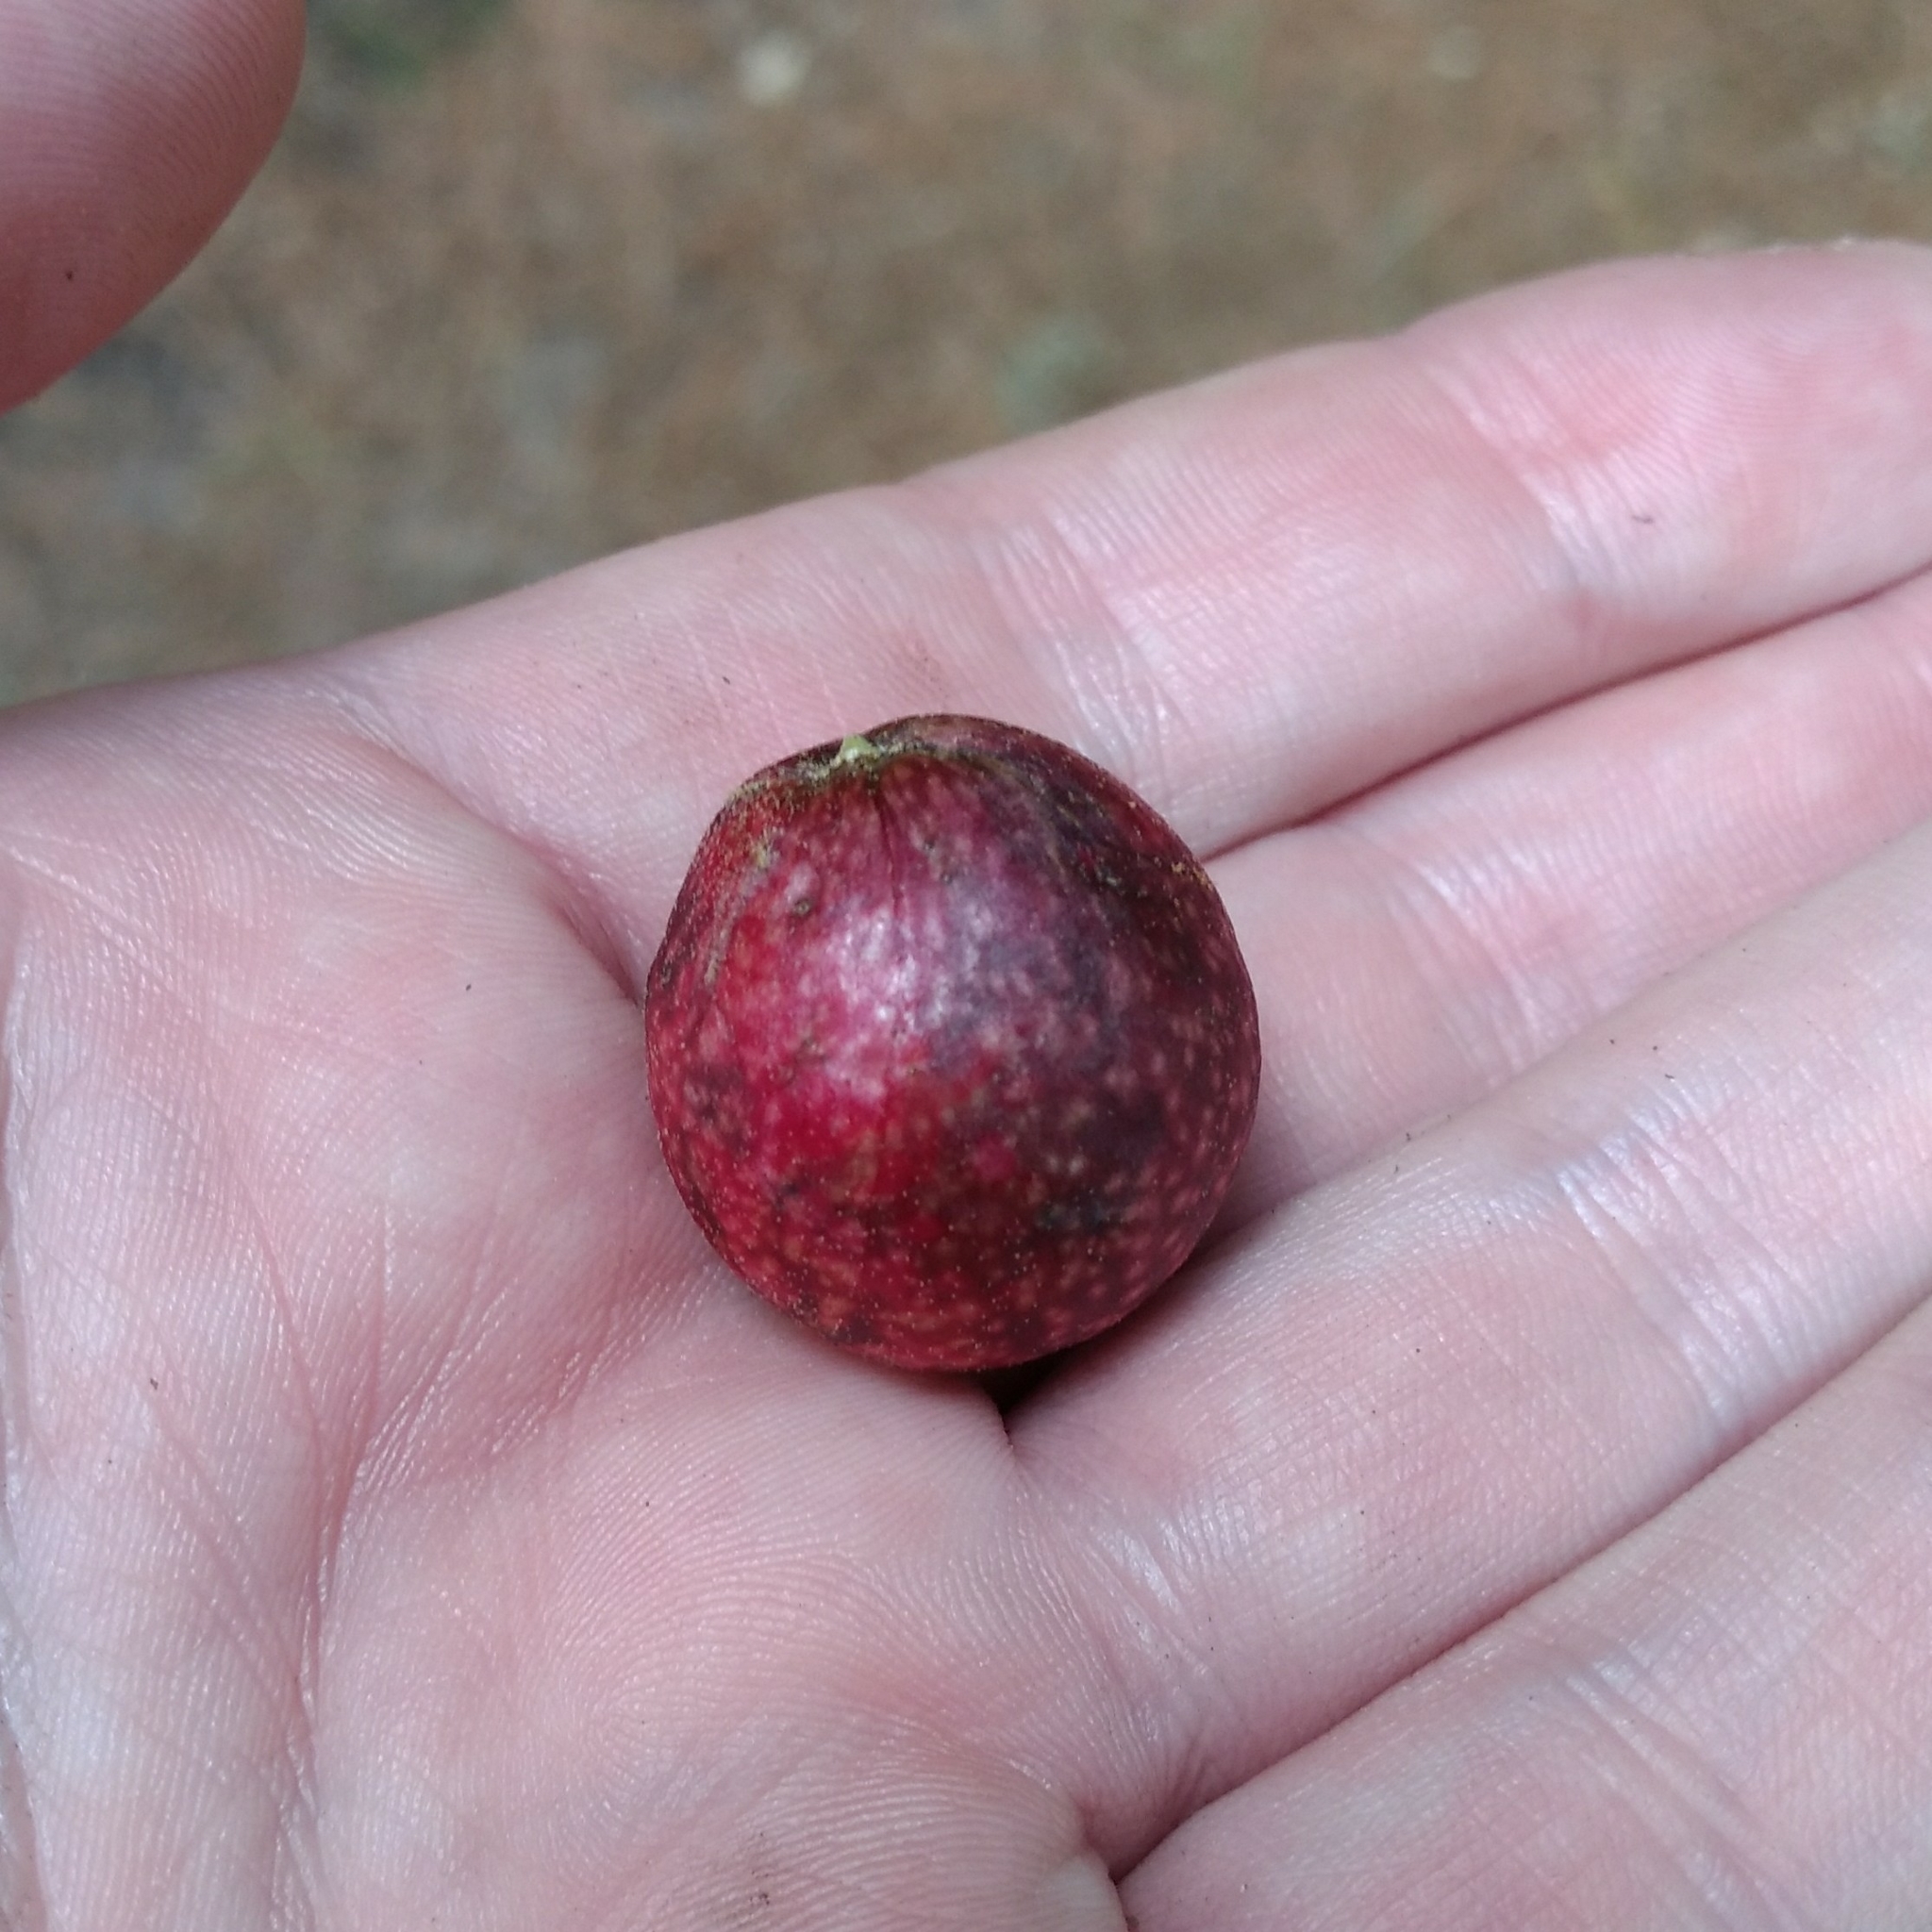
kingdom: Animalia
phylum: Arthropoda
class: Insecta
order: Hymenoptera
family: Cynipidae
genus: Amphibolips
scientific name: Amphibolips
